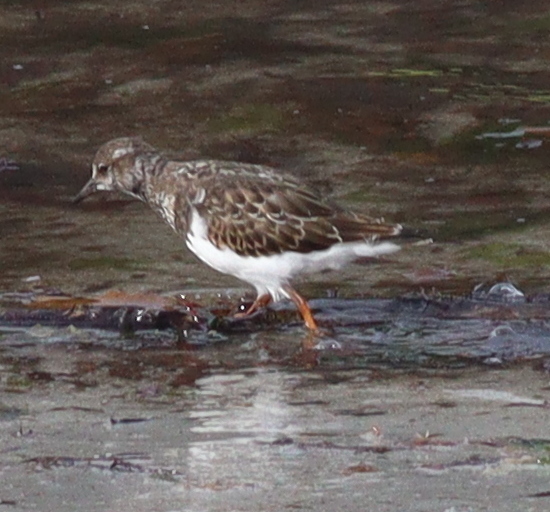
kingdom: Animalia
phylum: Chordata
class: Aves
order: Charadriiformes
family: Scolopacidae
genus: Arenaria
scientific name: Arenaria interpres
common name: Ruddy turnstone
